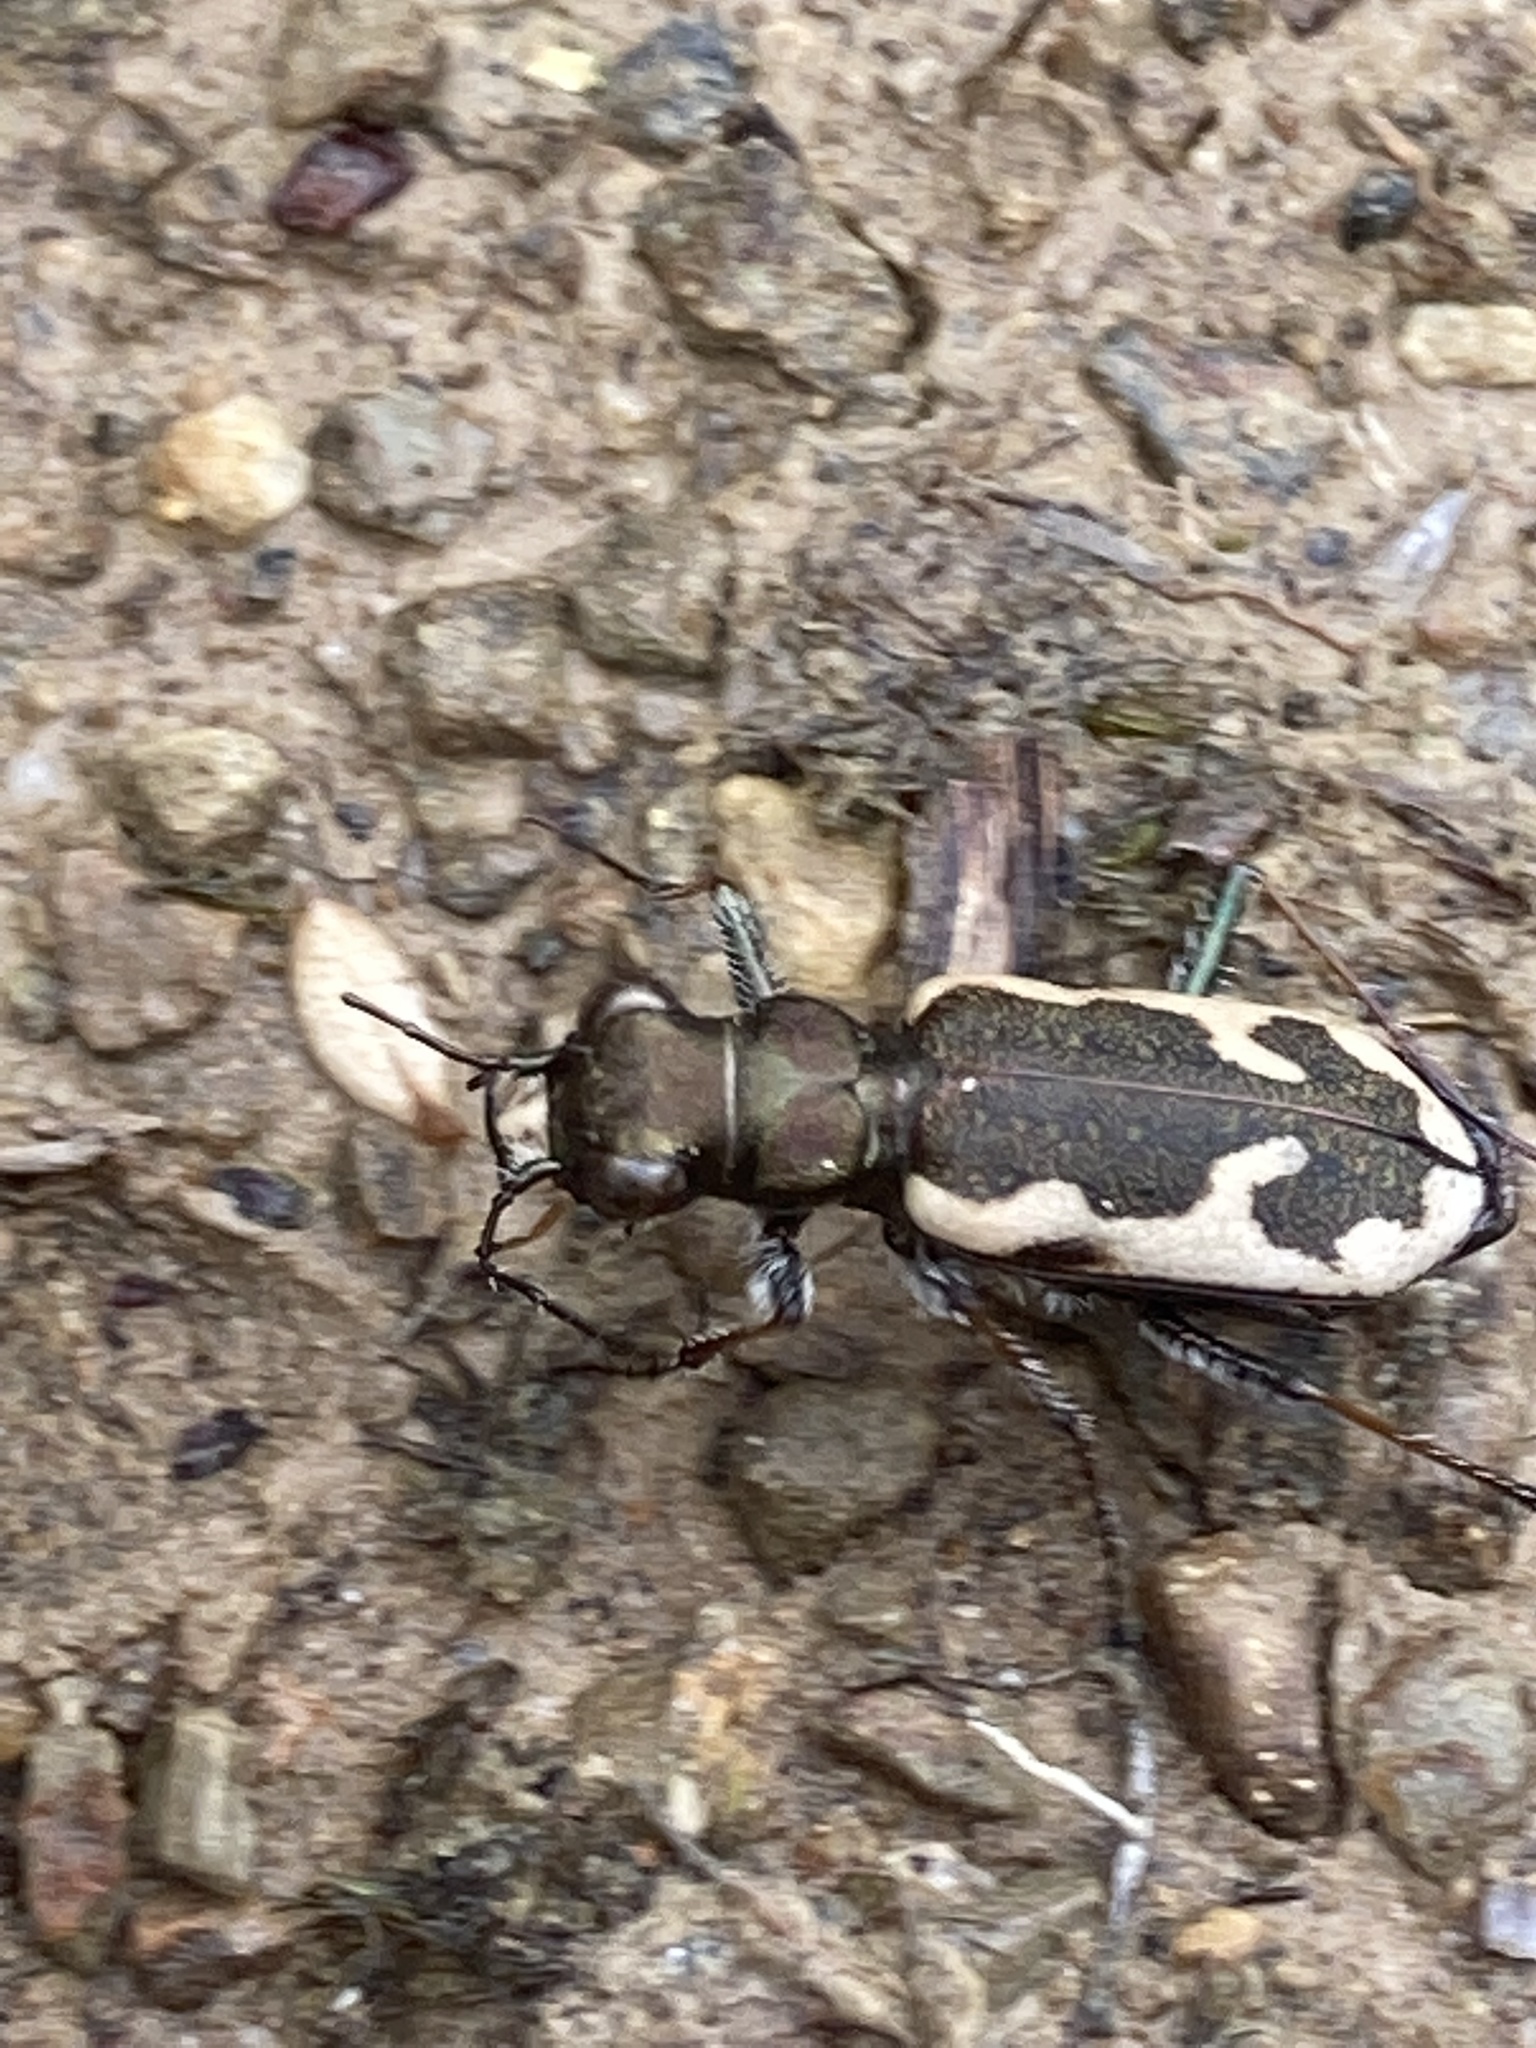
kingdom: Animalia
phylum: Arthropoda
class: Insecta
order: Coleoptera
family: Carabidae
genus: Neocicindela
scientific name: Neocicindela latecincta
